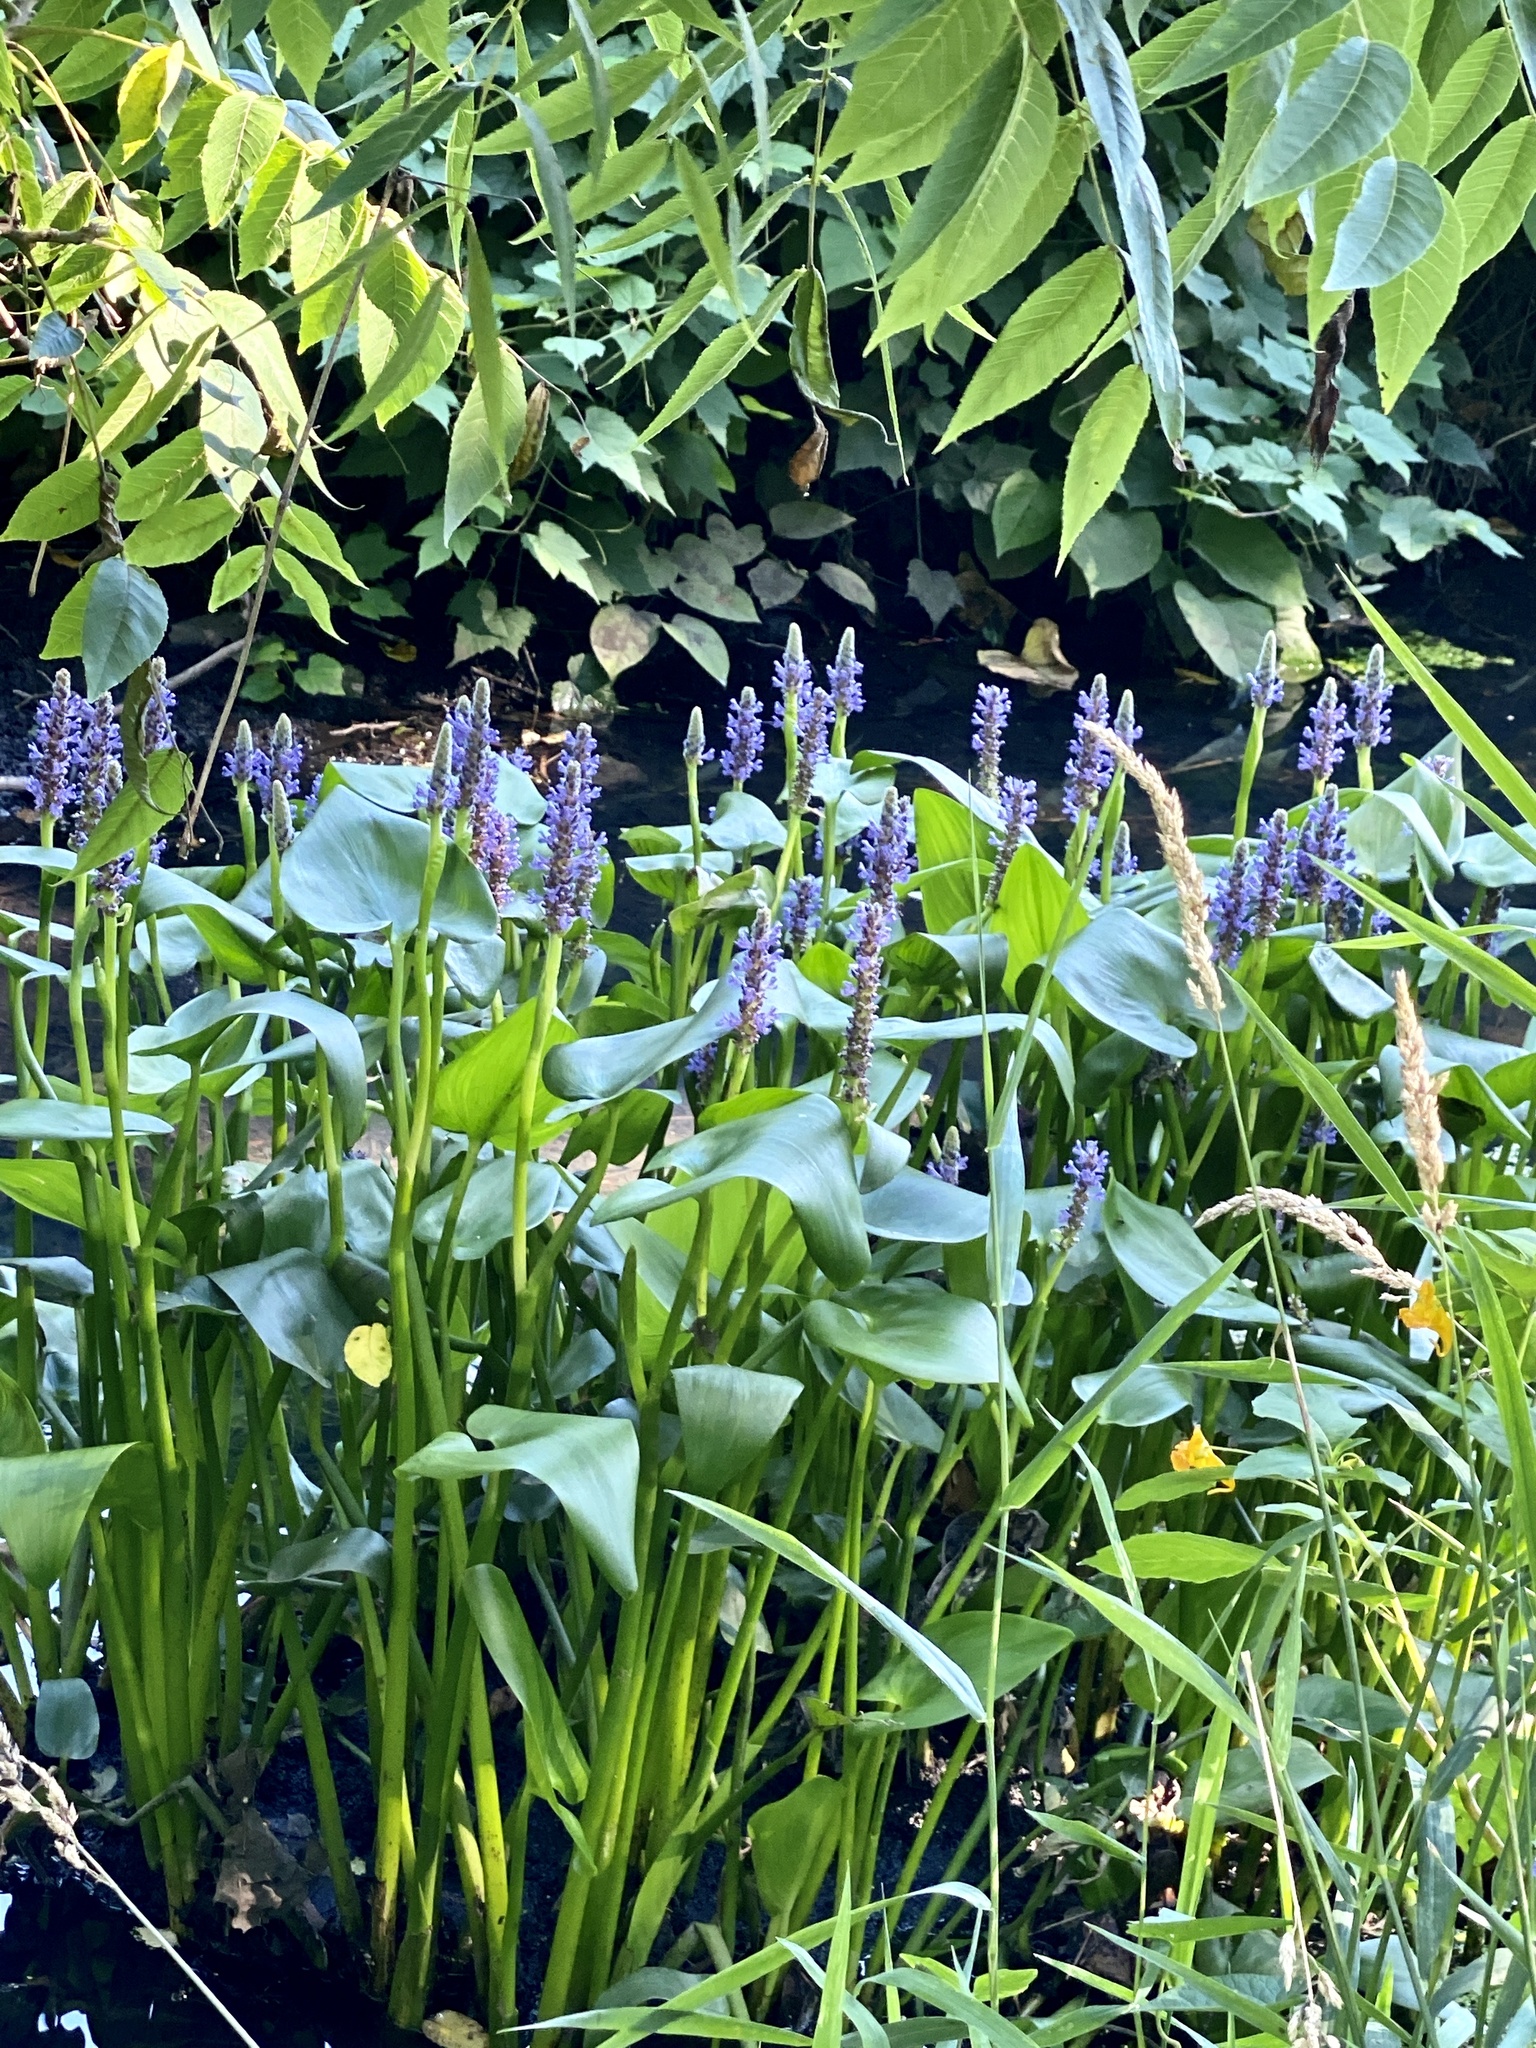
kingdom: Plantae
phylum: Tracheophyta
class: Liliopsida
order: Commelinales
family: Pontederiaceae
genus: Pontederia
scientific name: Pontederia cordata
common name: Pickerelweed
